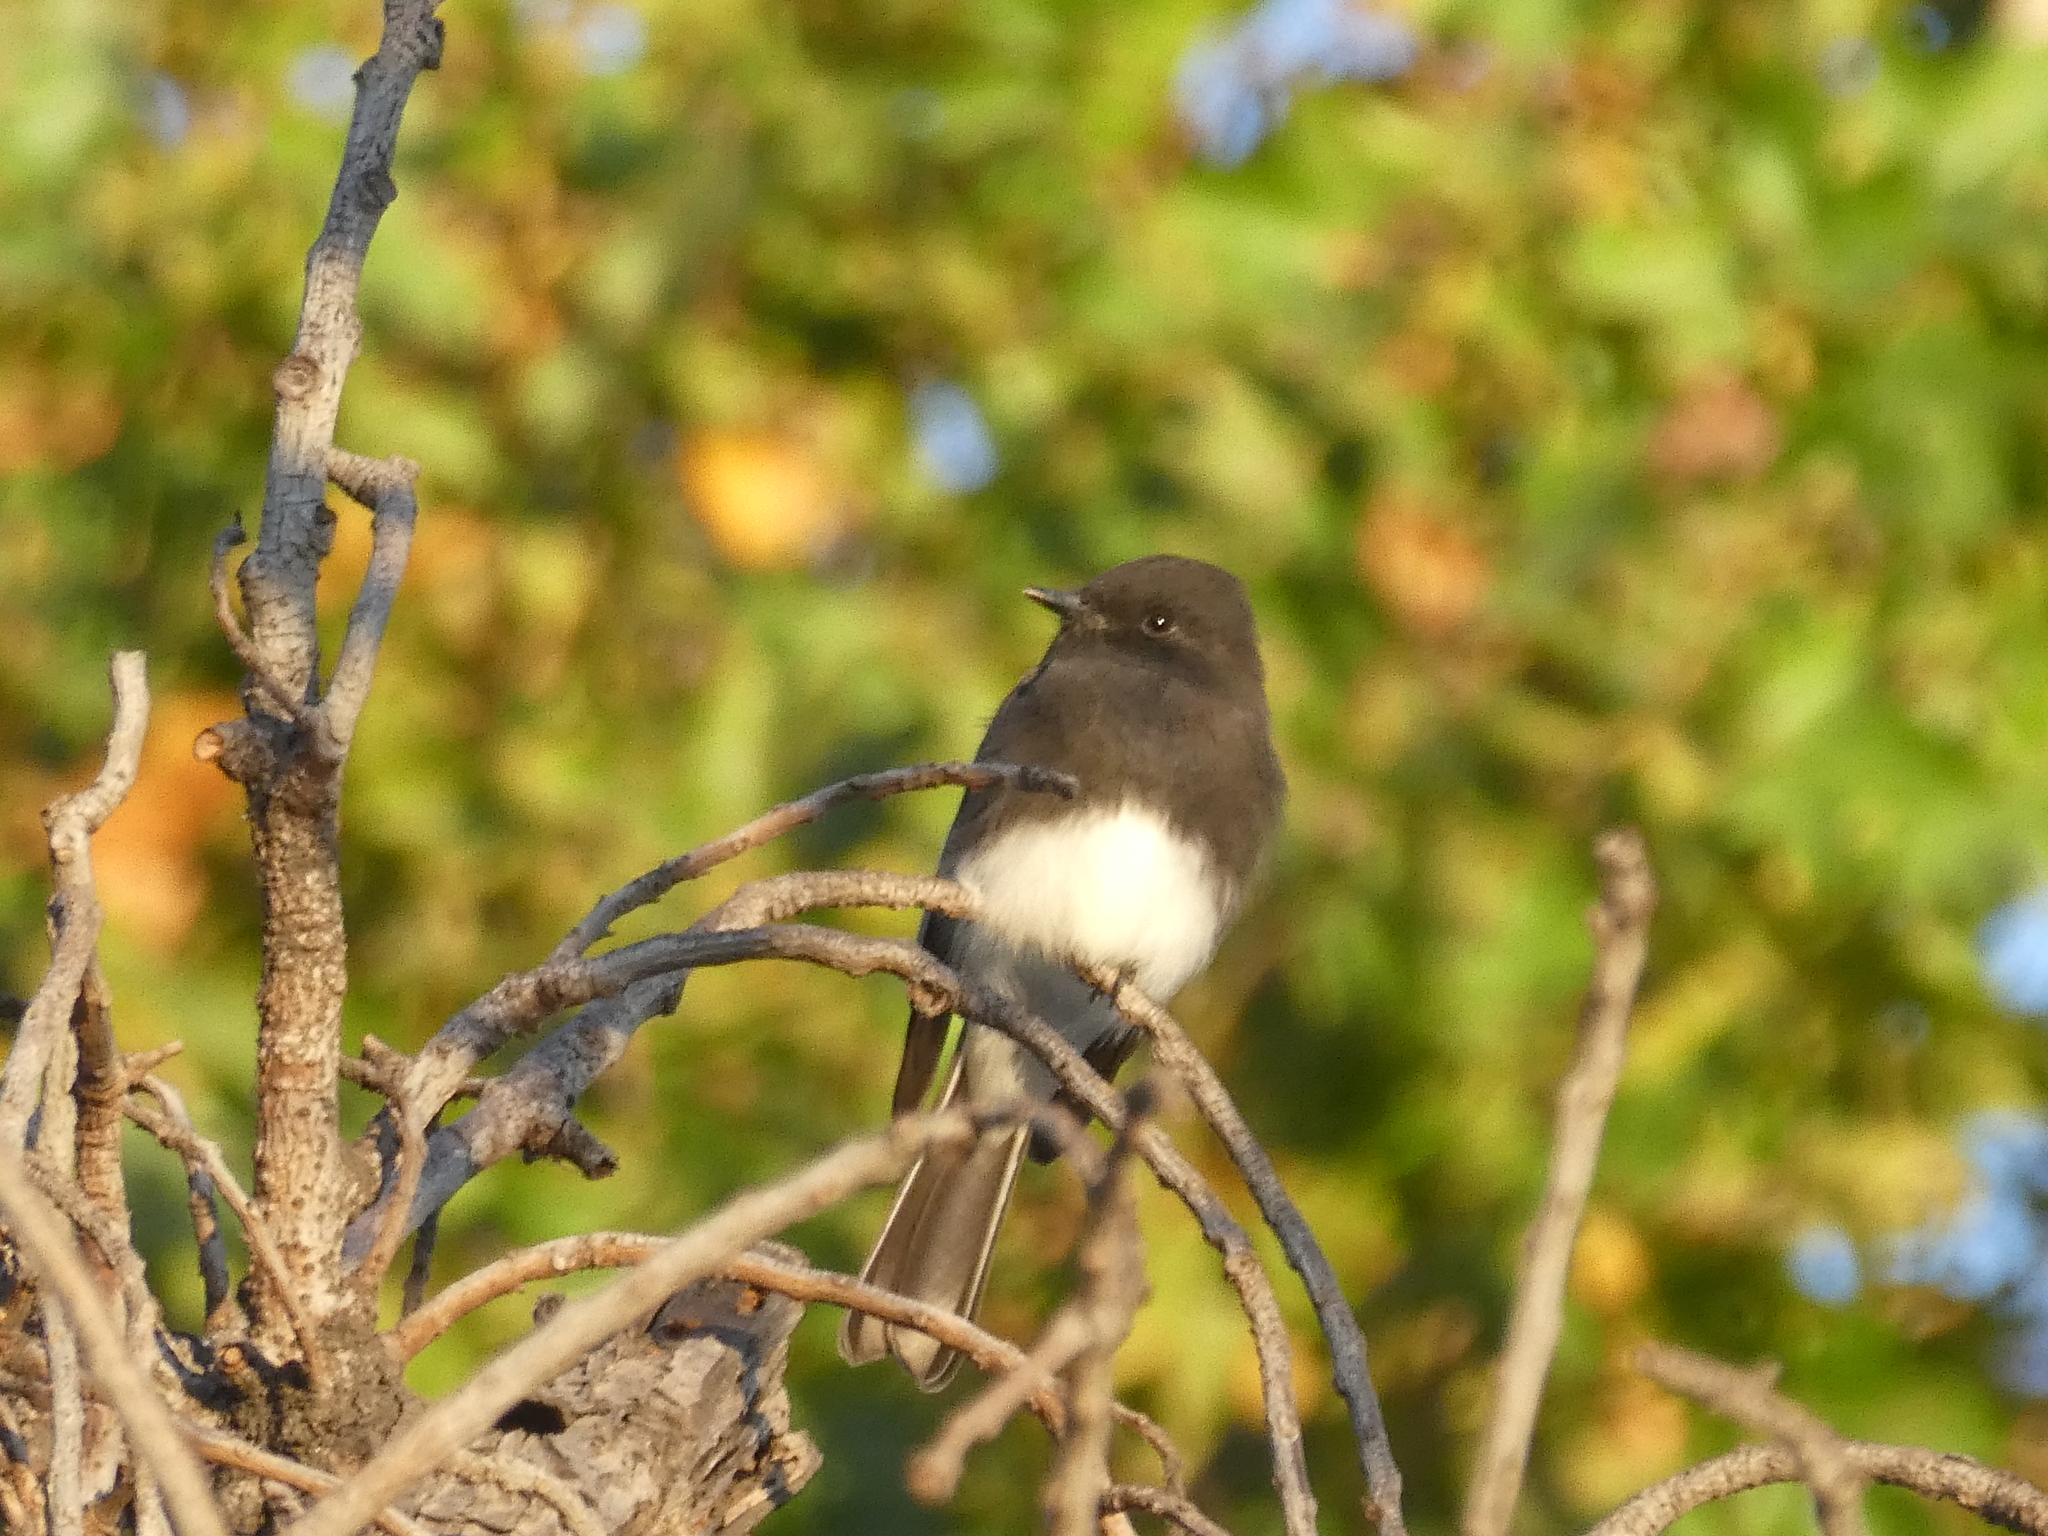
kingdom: Animalia
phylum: Chordata
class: Aves
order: Passeriformes
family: Tyrannidae
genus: Sayornis
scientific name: Sayornis nigricans
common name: Black phoebe
